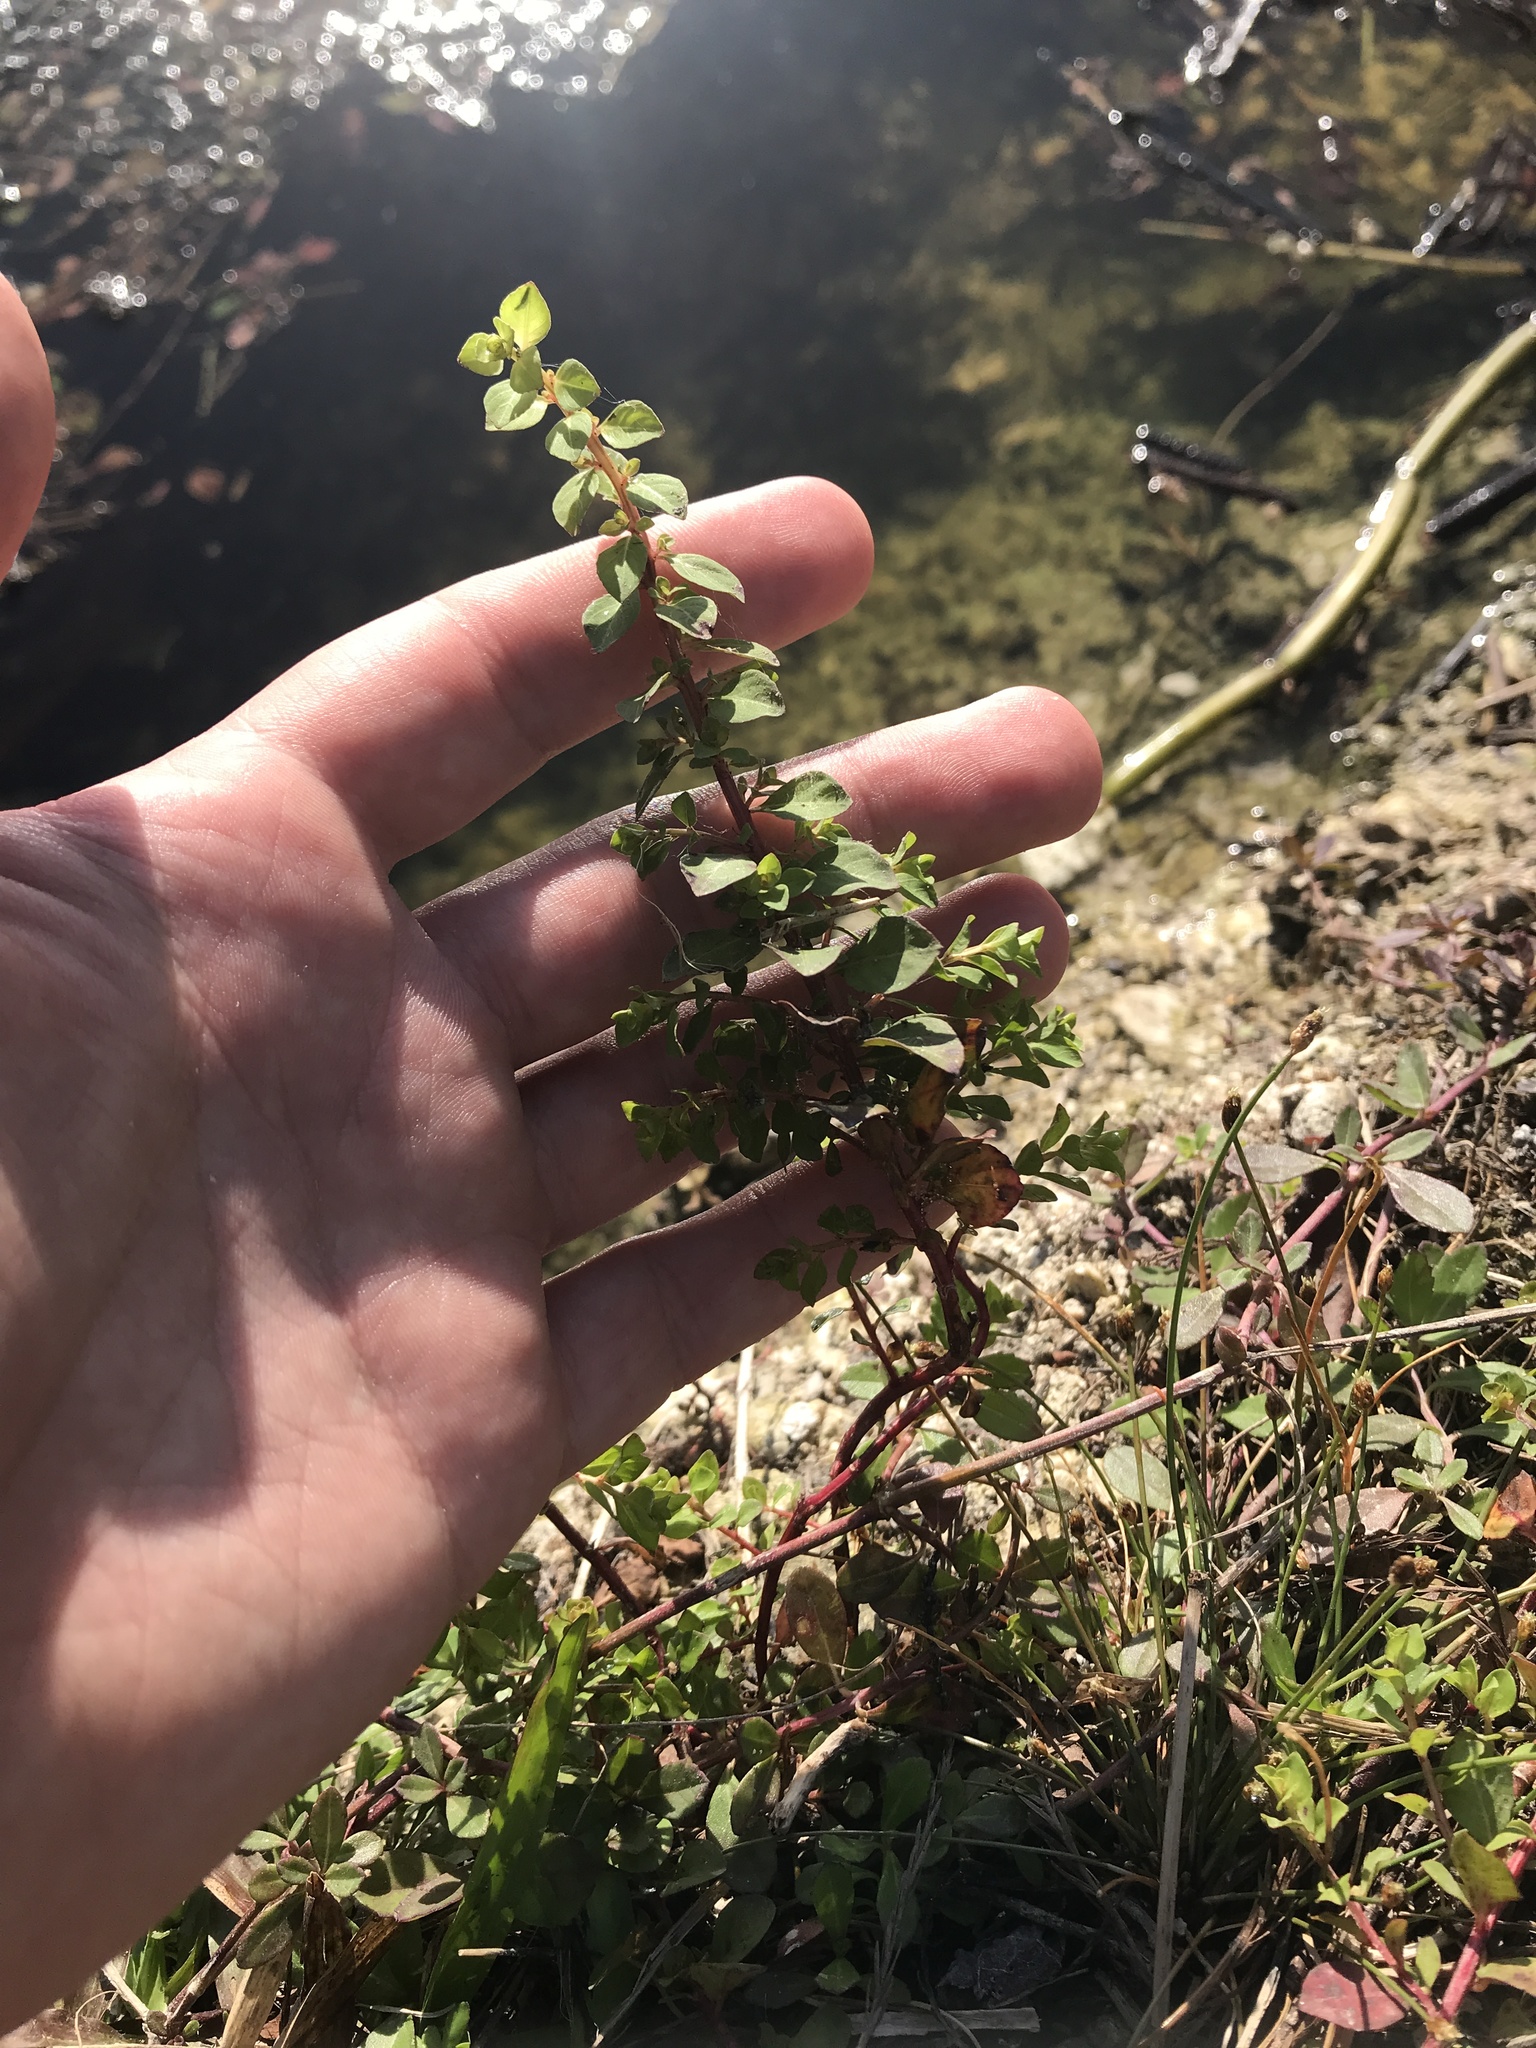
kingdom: Plantae
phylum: Tracheophyta
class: Magnoliopsida
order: Myrtales
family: Onagraceae
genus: Ludwigia
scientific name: Ludwigia microcarpa
